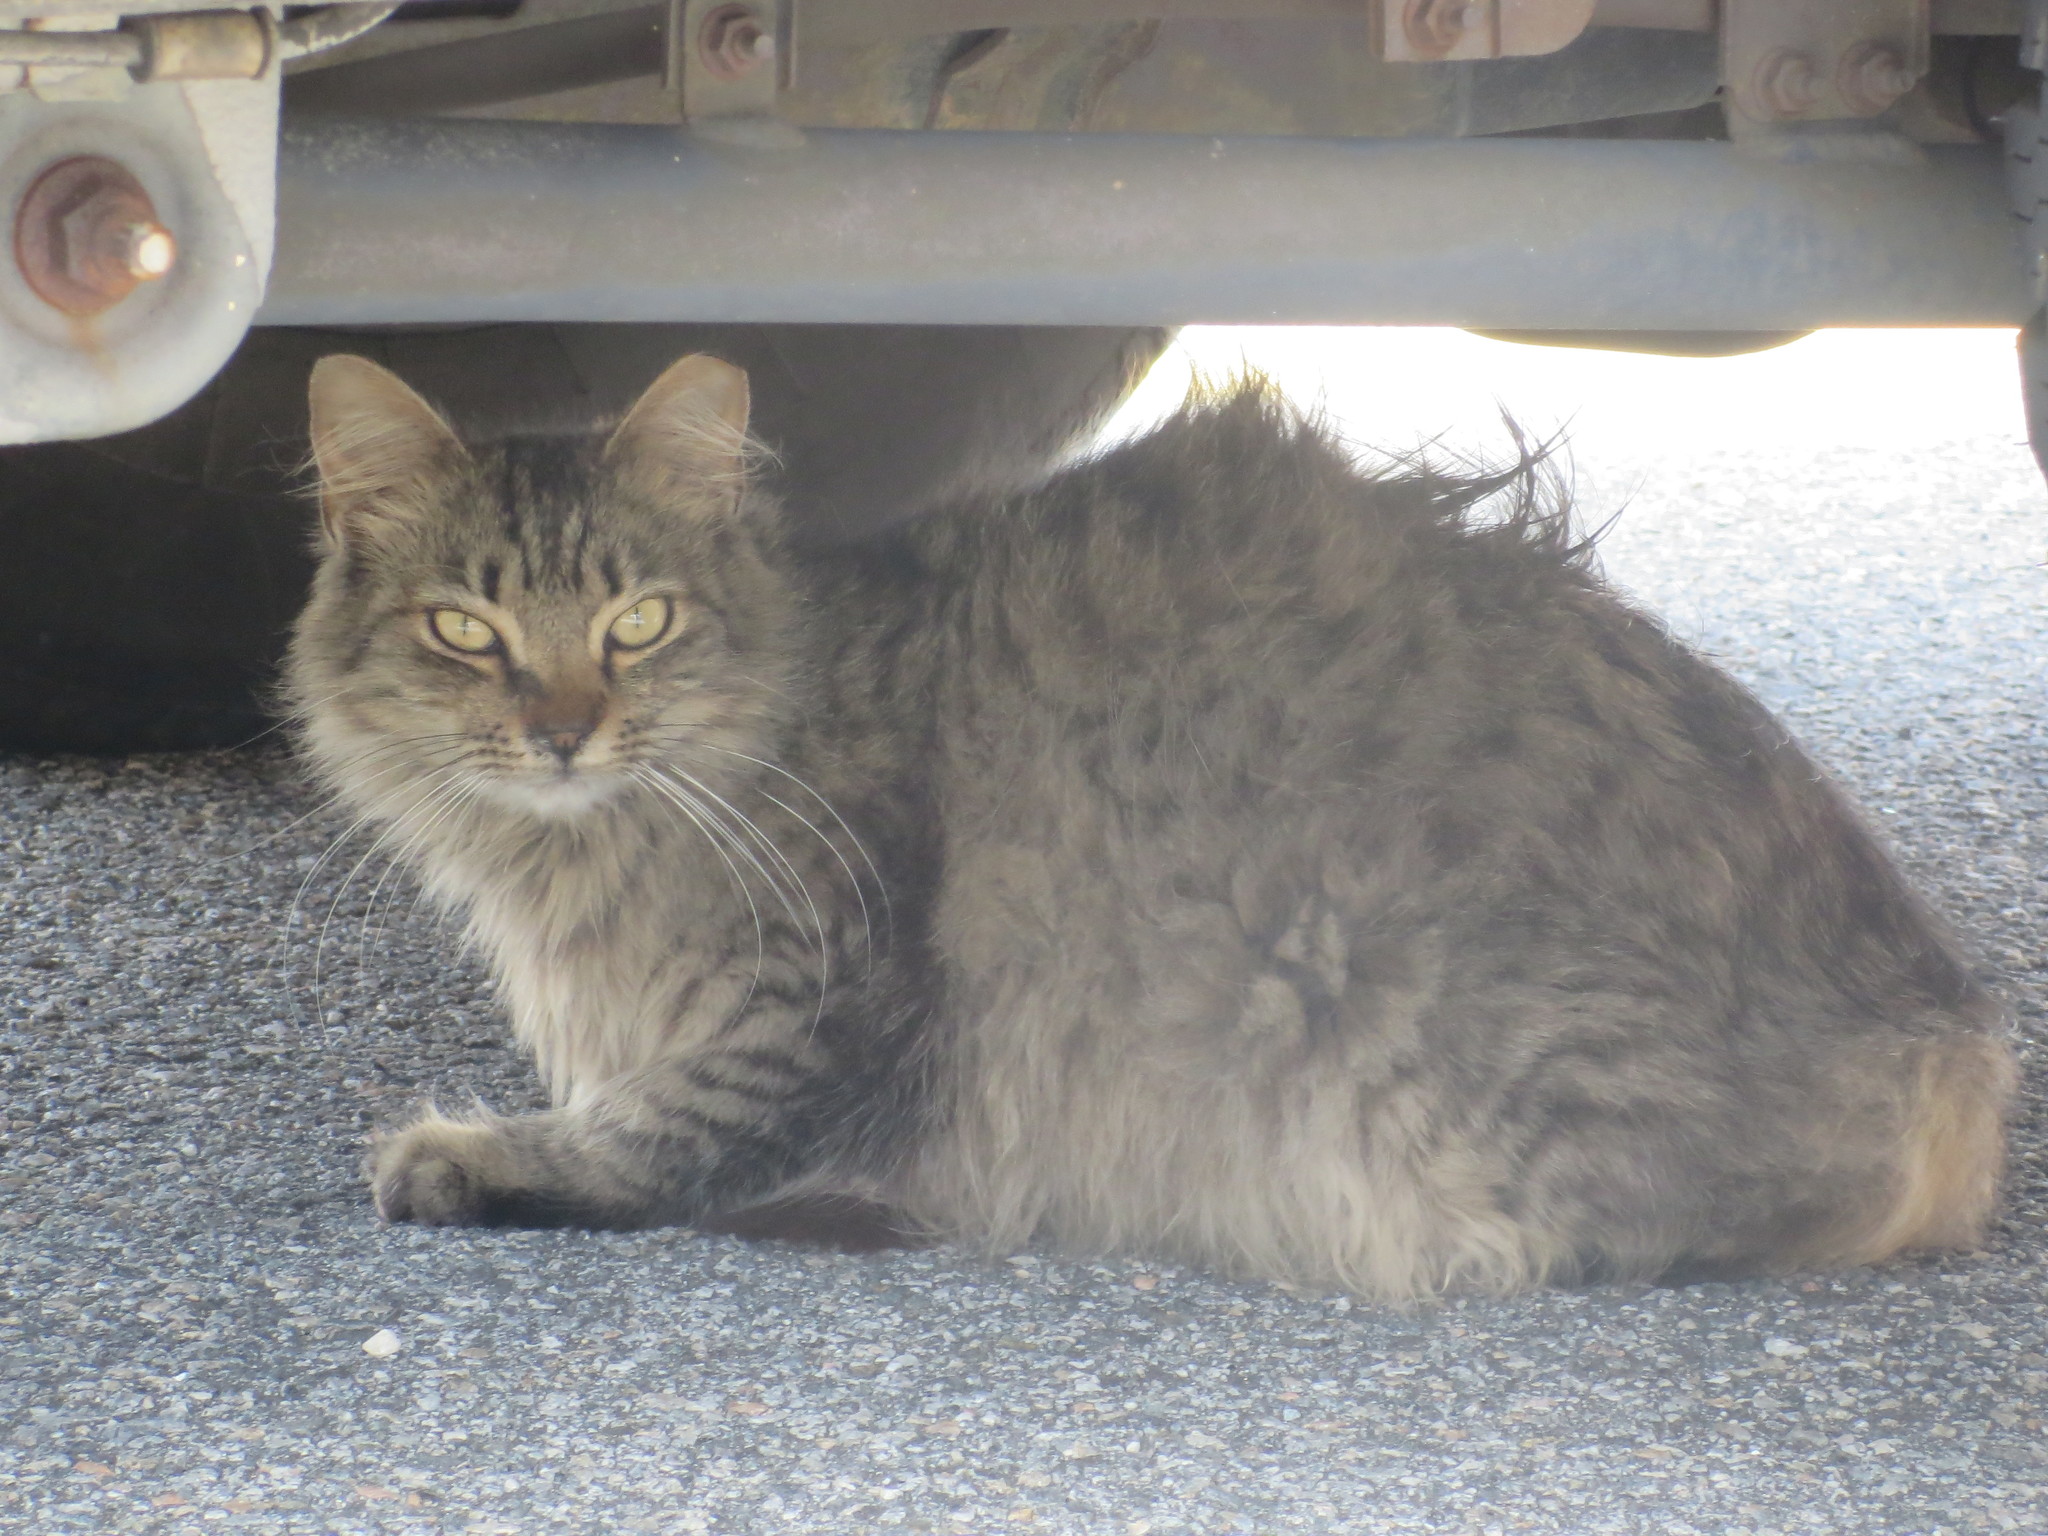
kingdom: Animalia
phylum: Chordata
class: Mammalia
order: Carnivora
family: Felidae
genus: Felis
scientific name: Felis catus
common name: Domestic cat
